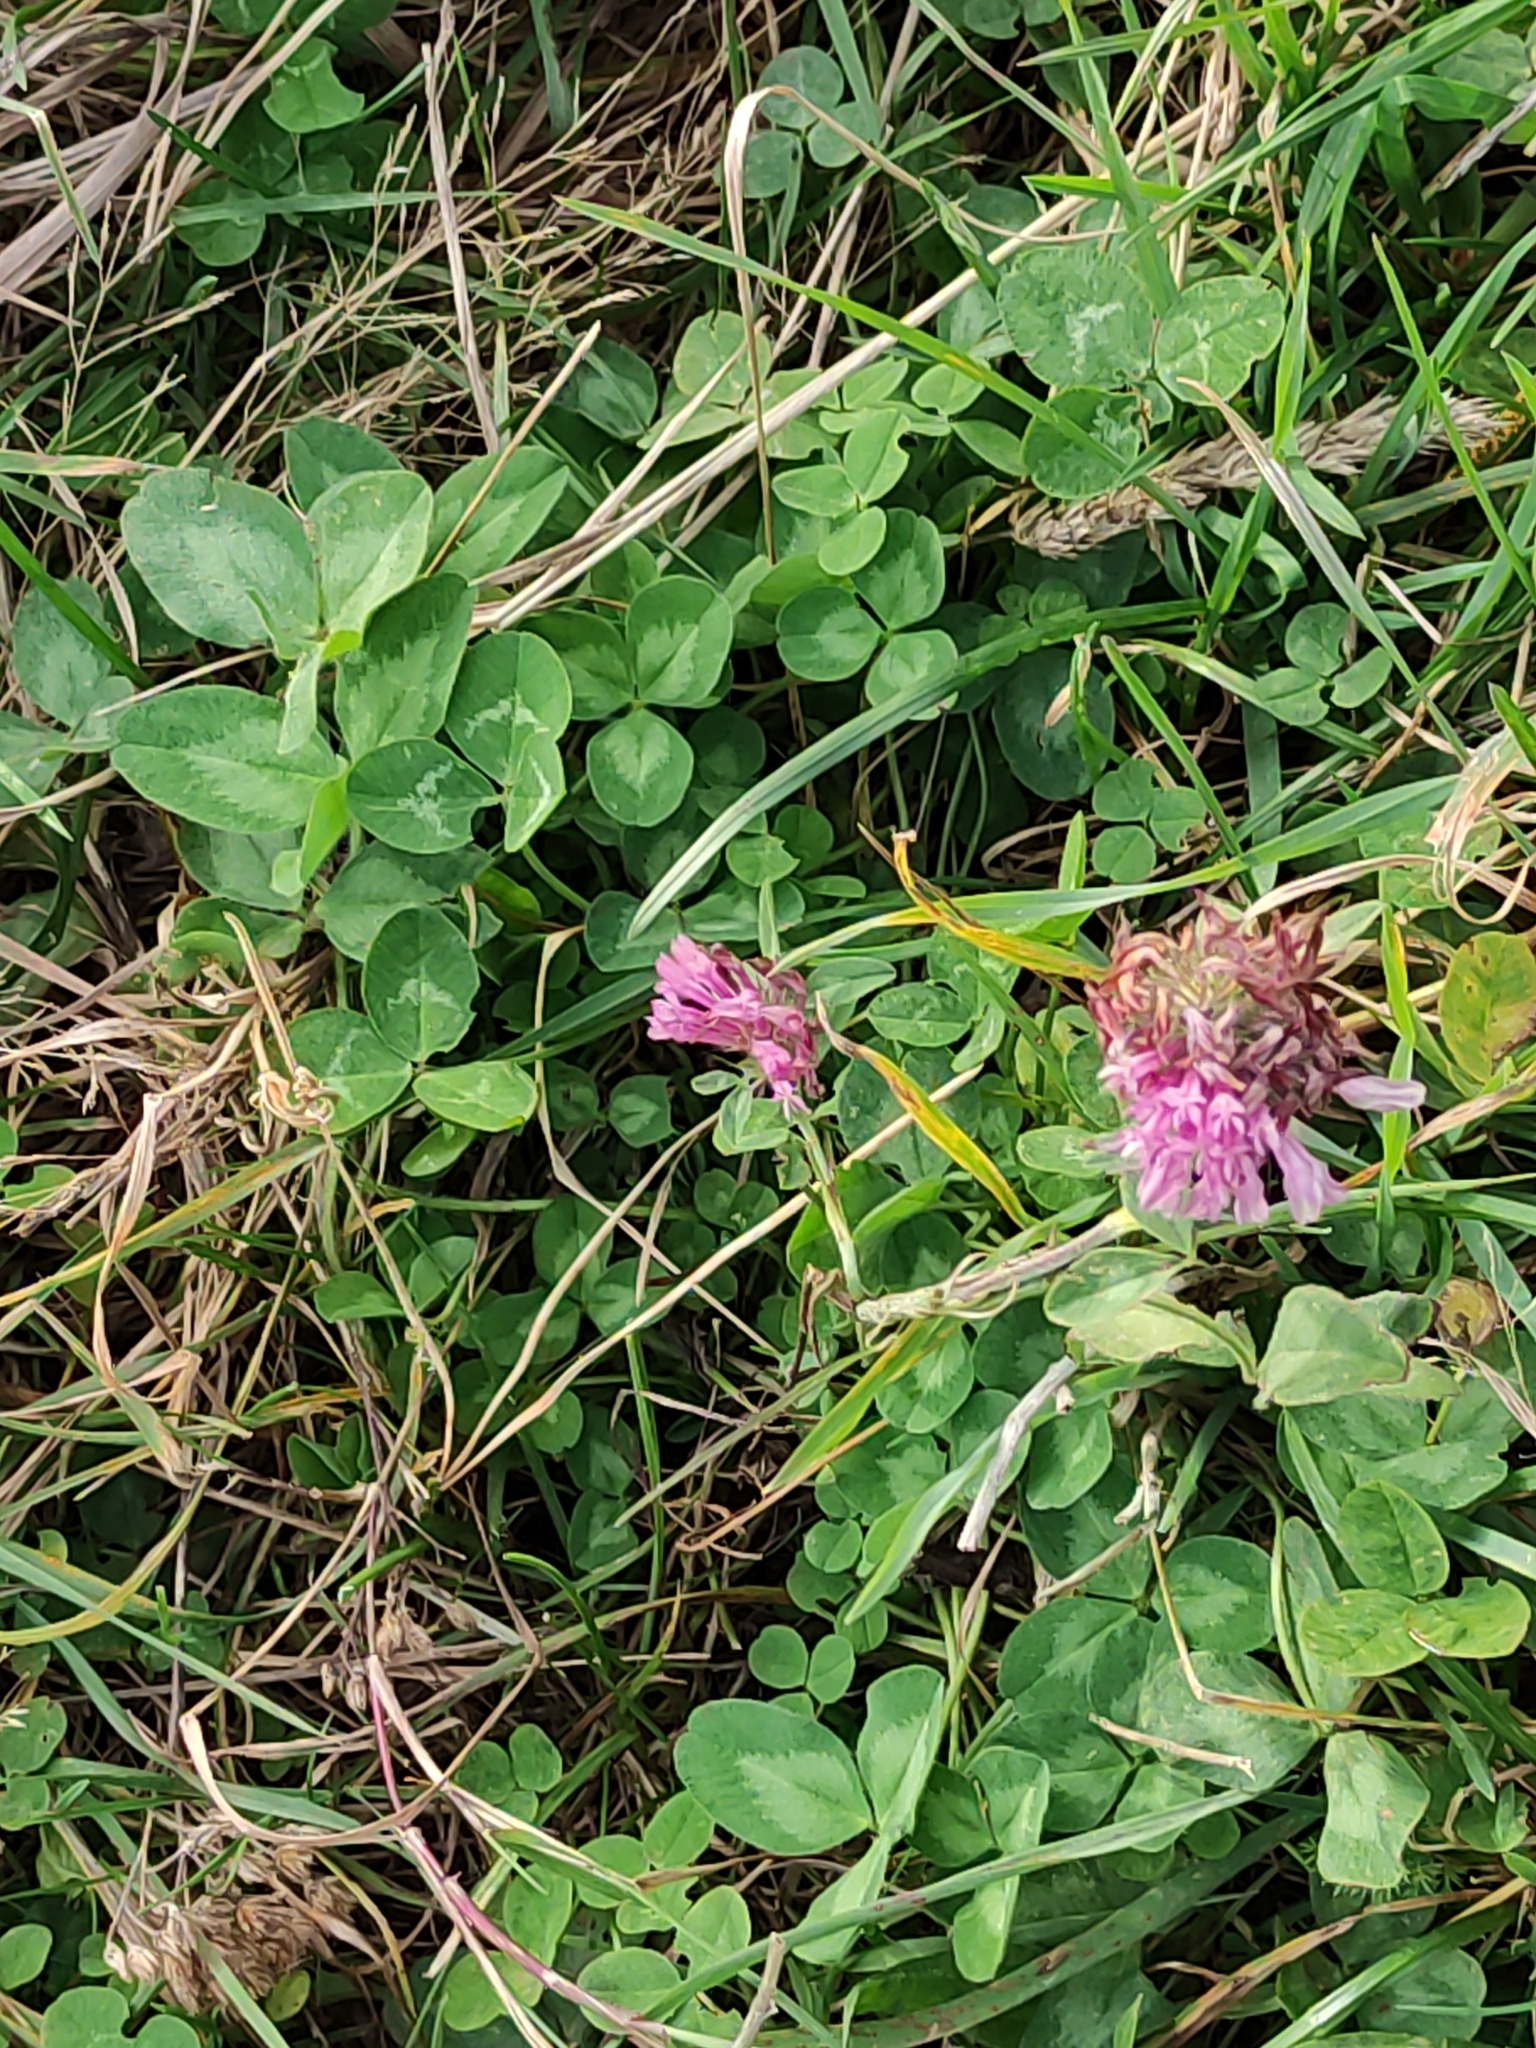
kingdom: Plantae
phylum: Tracheophyta
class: Magnoliopsida
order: Fabales
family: Fabaceae
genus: Trifolium
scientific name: Trifolium pratense
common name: Red clover
